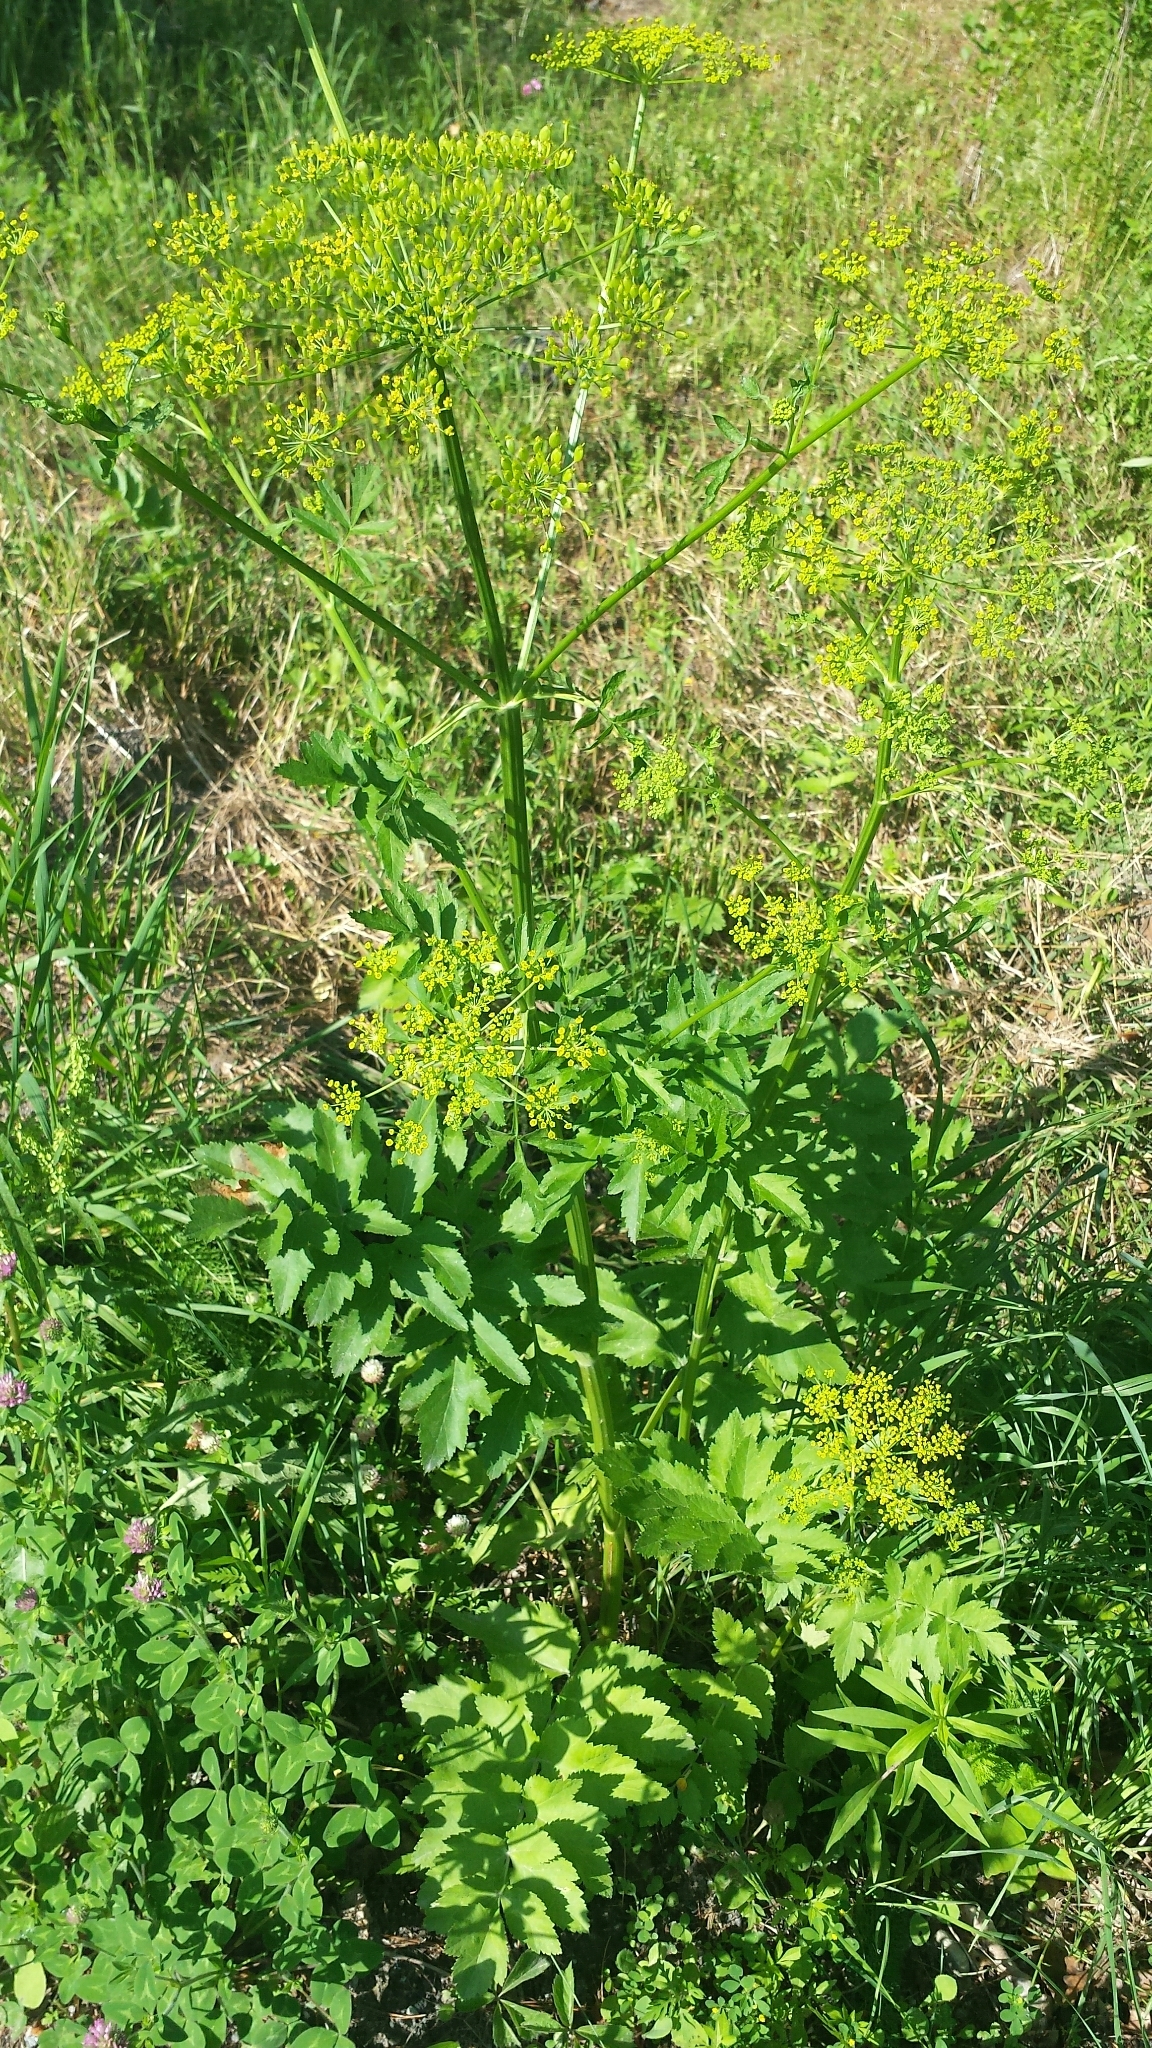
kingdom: Plantae
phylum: Tracheophyta
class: Magnoliopsida
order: Apiales
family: Apiaceae
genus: Pastinaca
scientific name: Pastinaca sativa
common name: Wild parsnip
